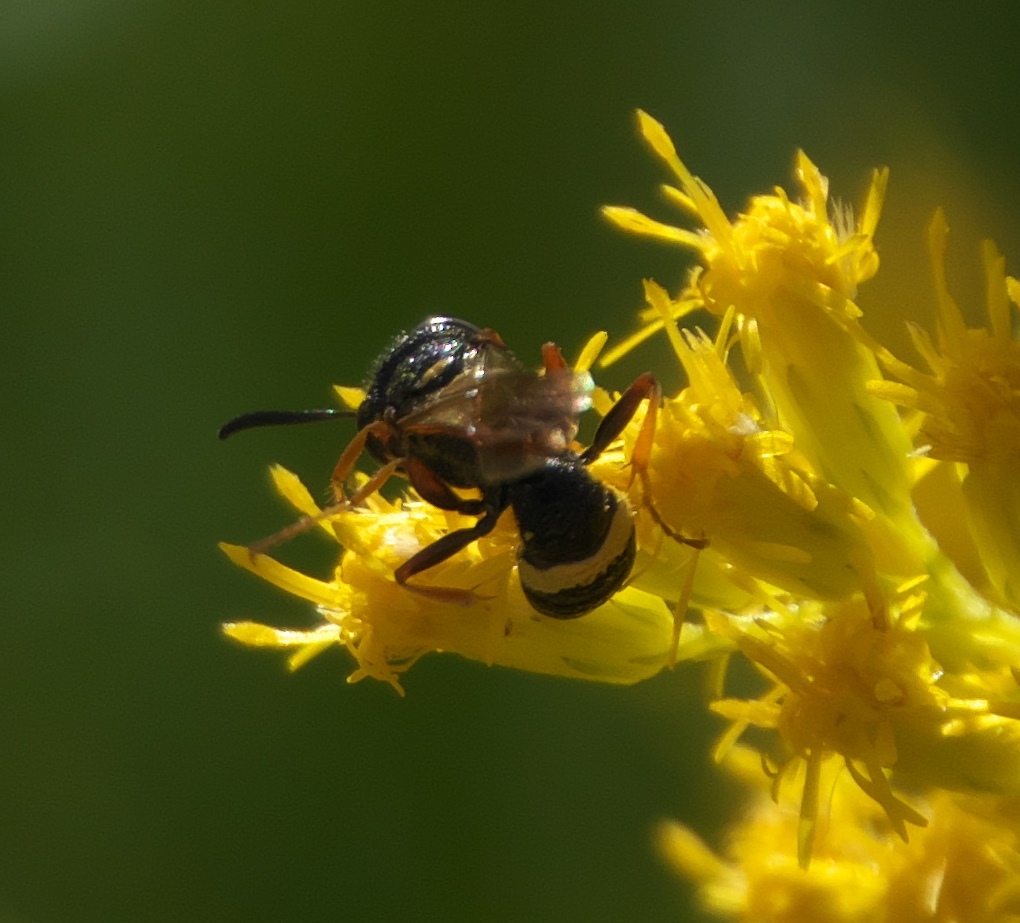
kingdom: Animalia
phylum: Arthropoda
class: Insecta
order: Hymenoptera
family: Crabronidae
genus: Philanthus
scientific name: Philanthus gibbosus
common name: Humped beewolf
